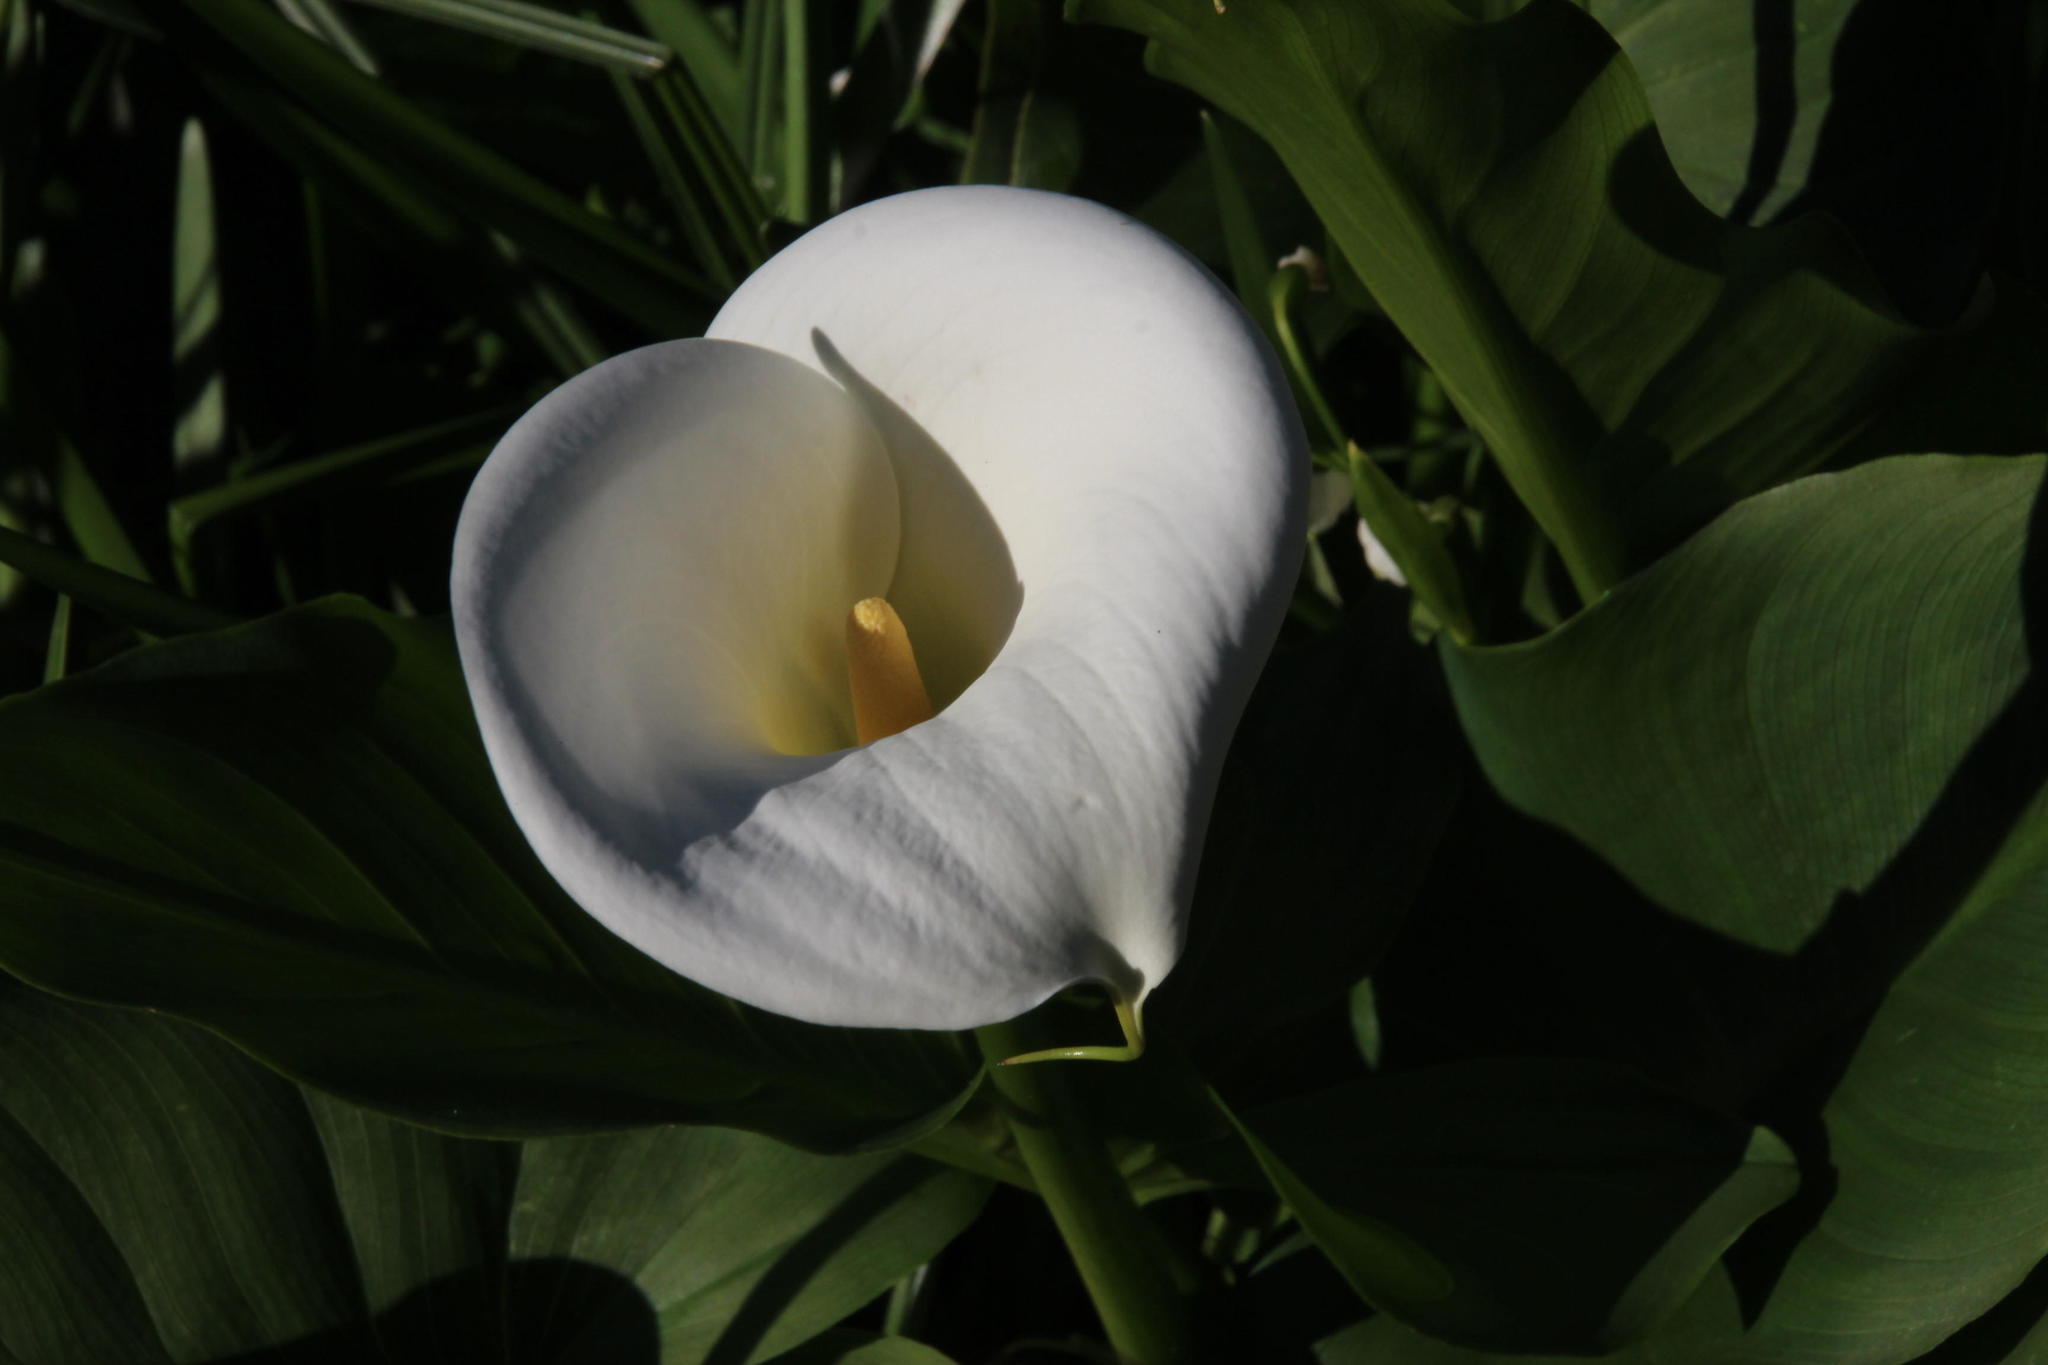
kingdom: Plantae
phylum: Tracheophyta
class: Liliopsida
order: Alismatales
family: Araceae
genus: Zantedeschia
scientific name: Zantedeschia aethiopica
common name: Altar-lily
